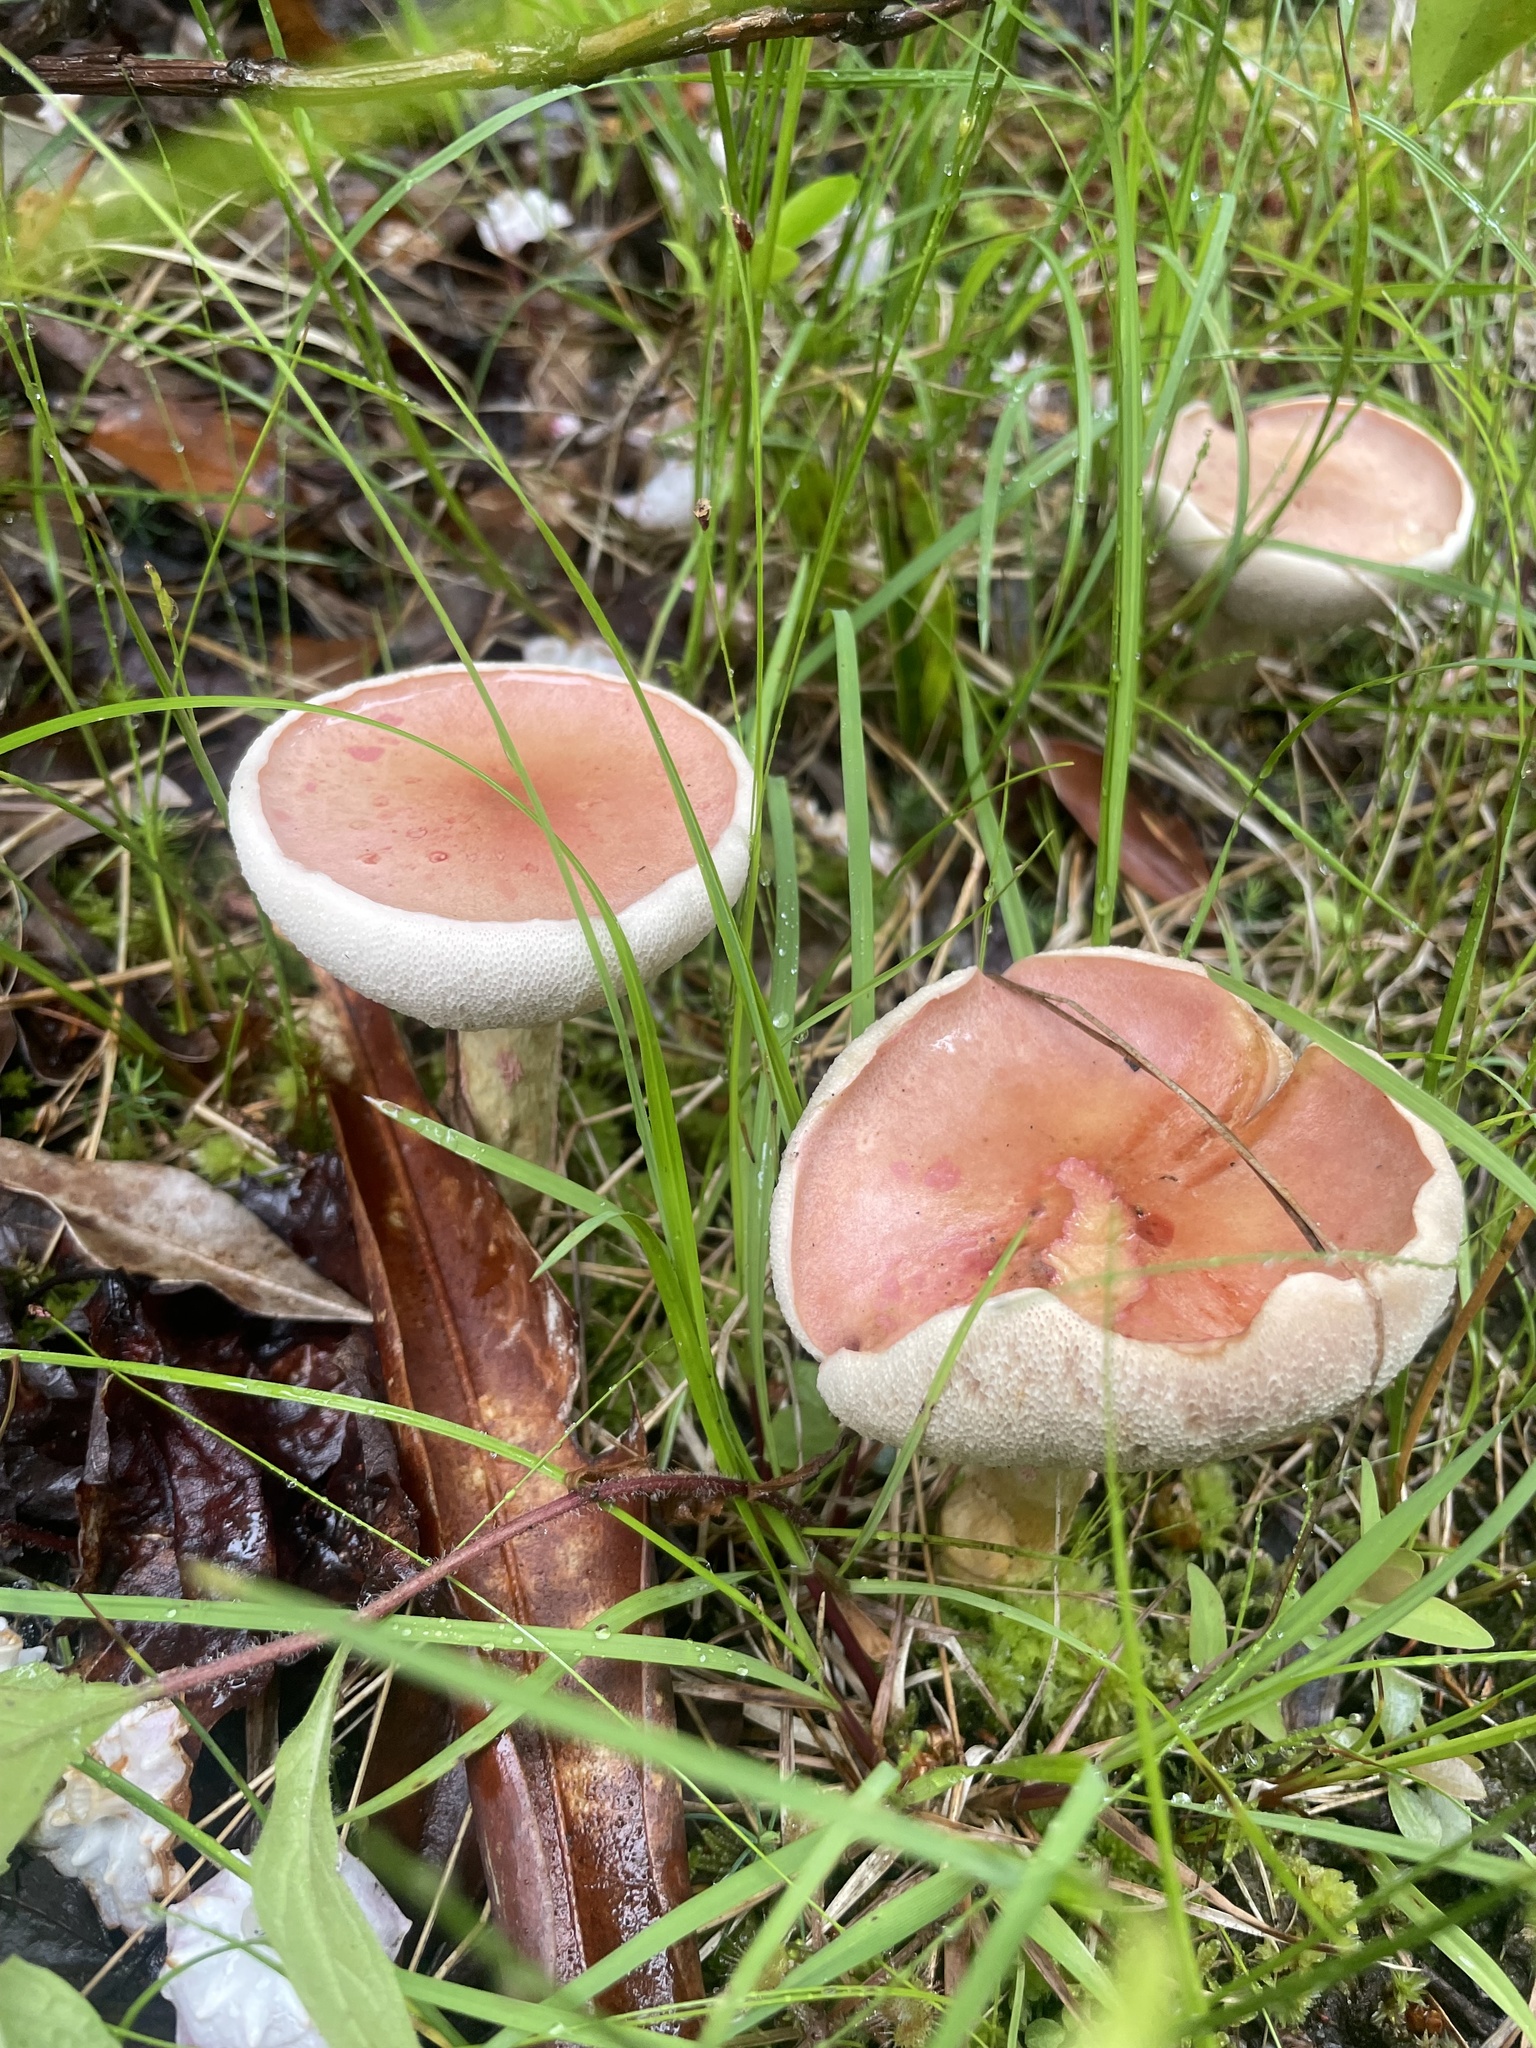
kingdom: Fungi
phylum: Basidiomycota
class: Agaricomycetes
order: Boletales
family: Boletaceae
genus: Harrya
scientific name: Harrya chromipes
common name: Chrome-footed bolete
